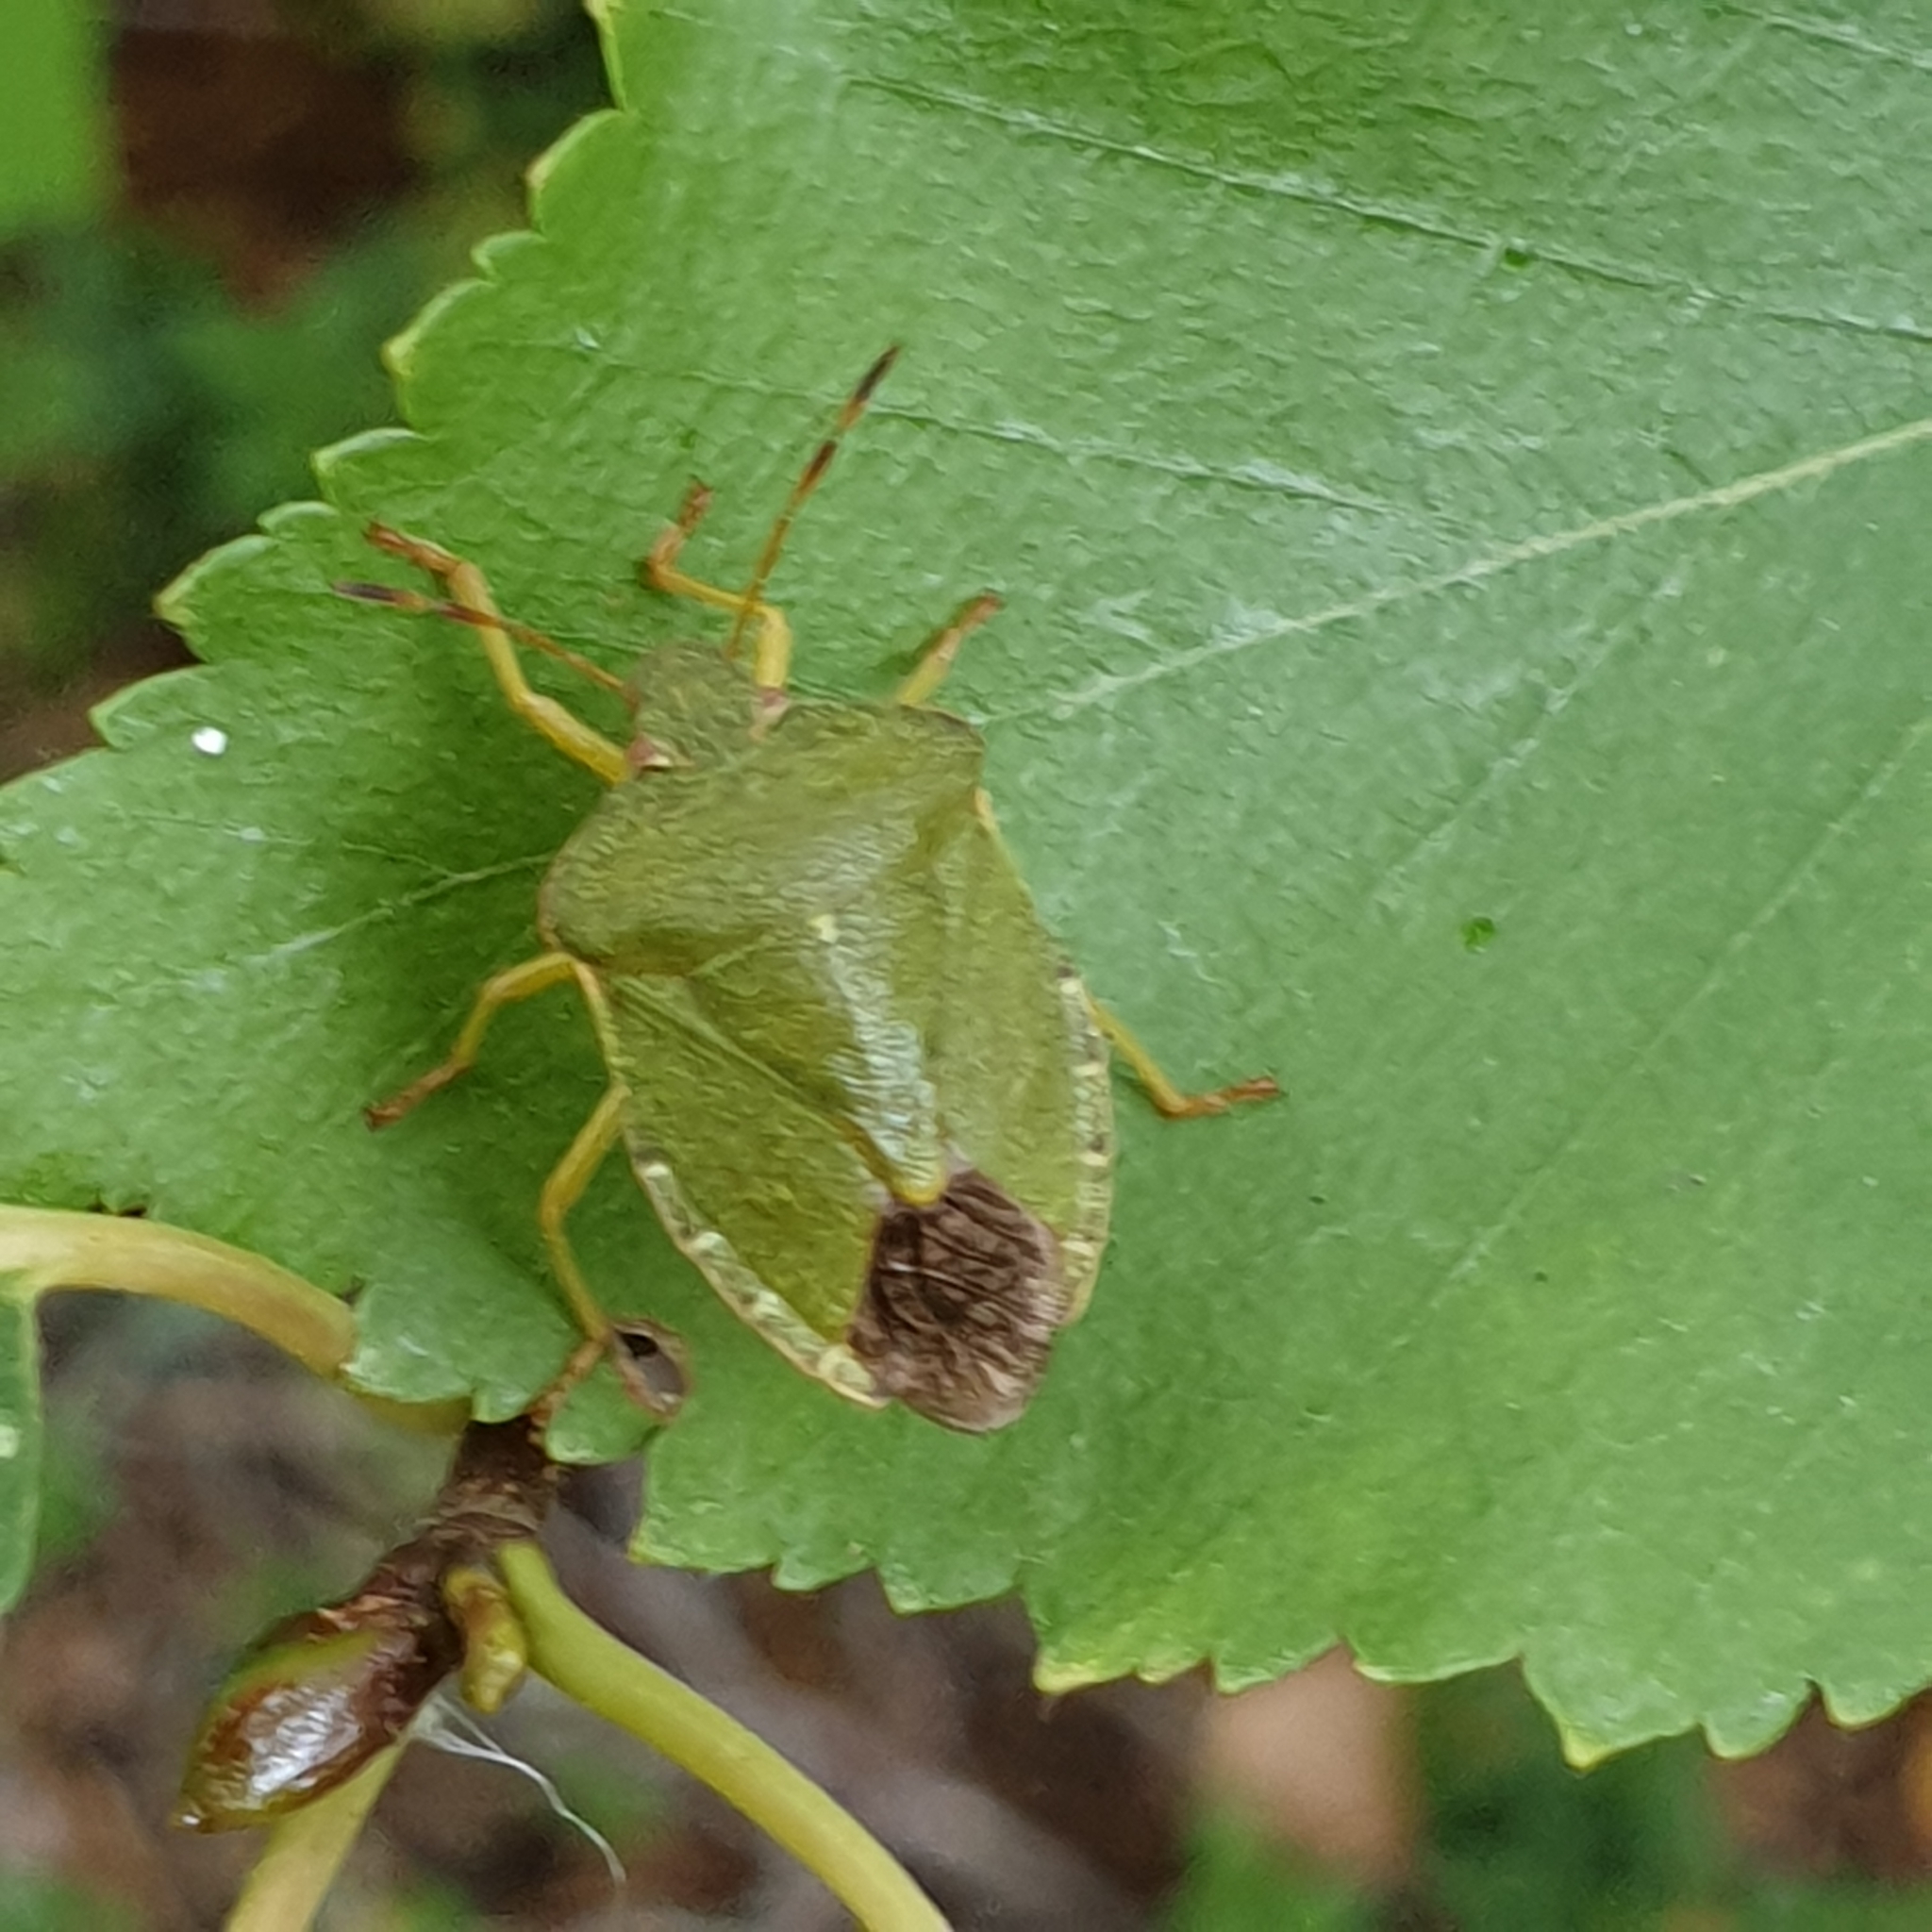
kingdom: Animalia
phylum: Arthropoda
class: Insecta
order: Hemiptera
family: Pentatomidae
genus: Palomena
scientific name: Palomena prasina
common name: Green shieldbug
